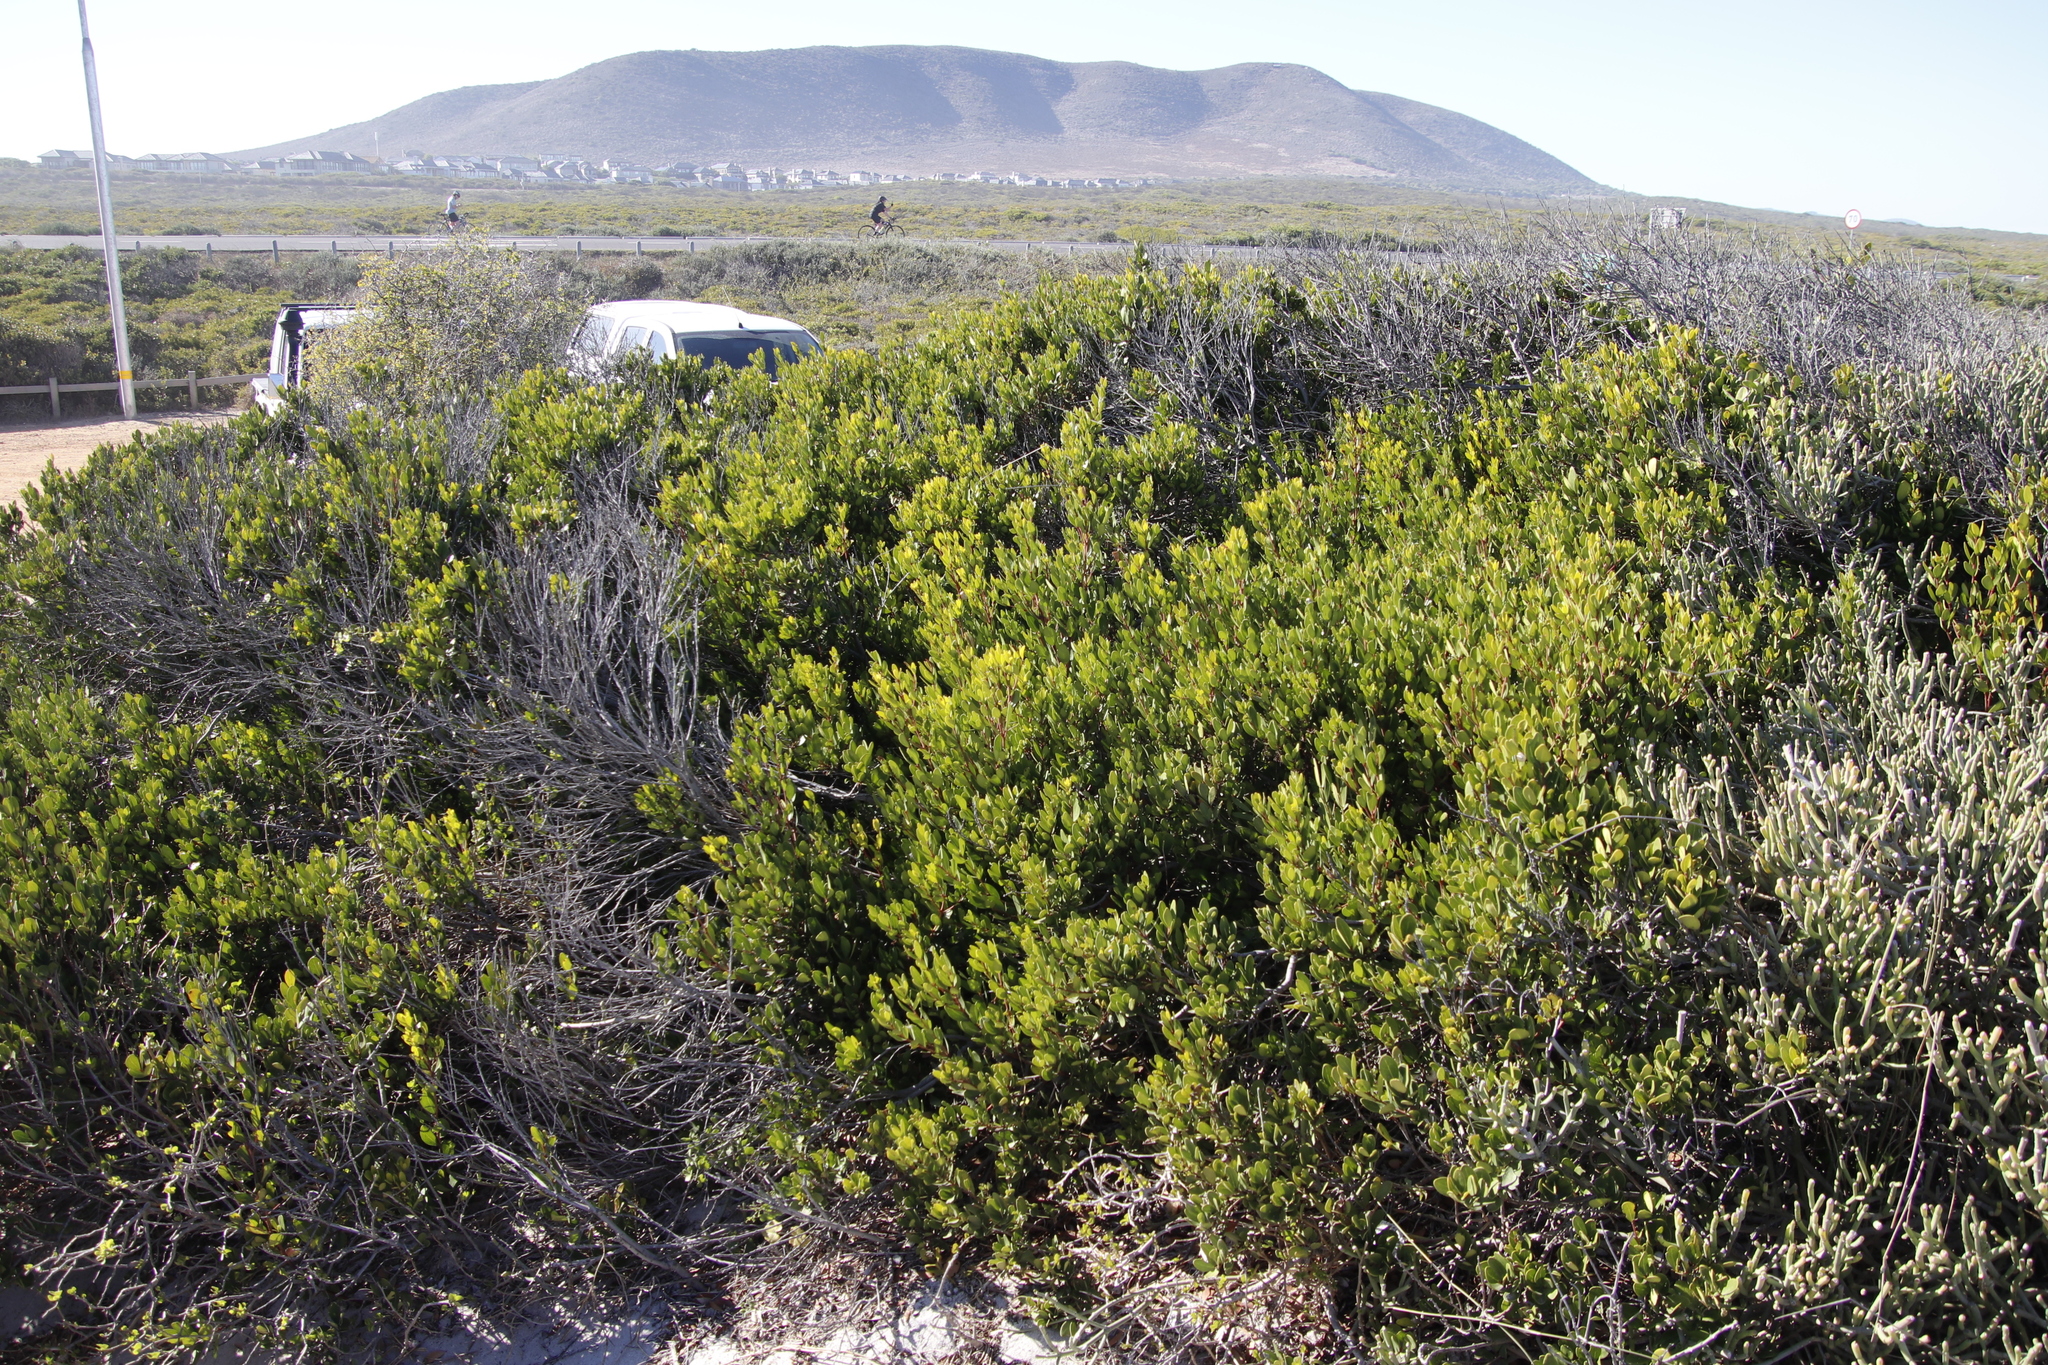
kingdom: Plantae
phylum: Tracheophyta
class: Magnoliopsida
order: Ericales
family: Ebenaceae
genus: Euclea
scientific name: Euclea racemosa
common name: Dune guarri
